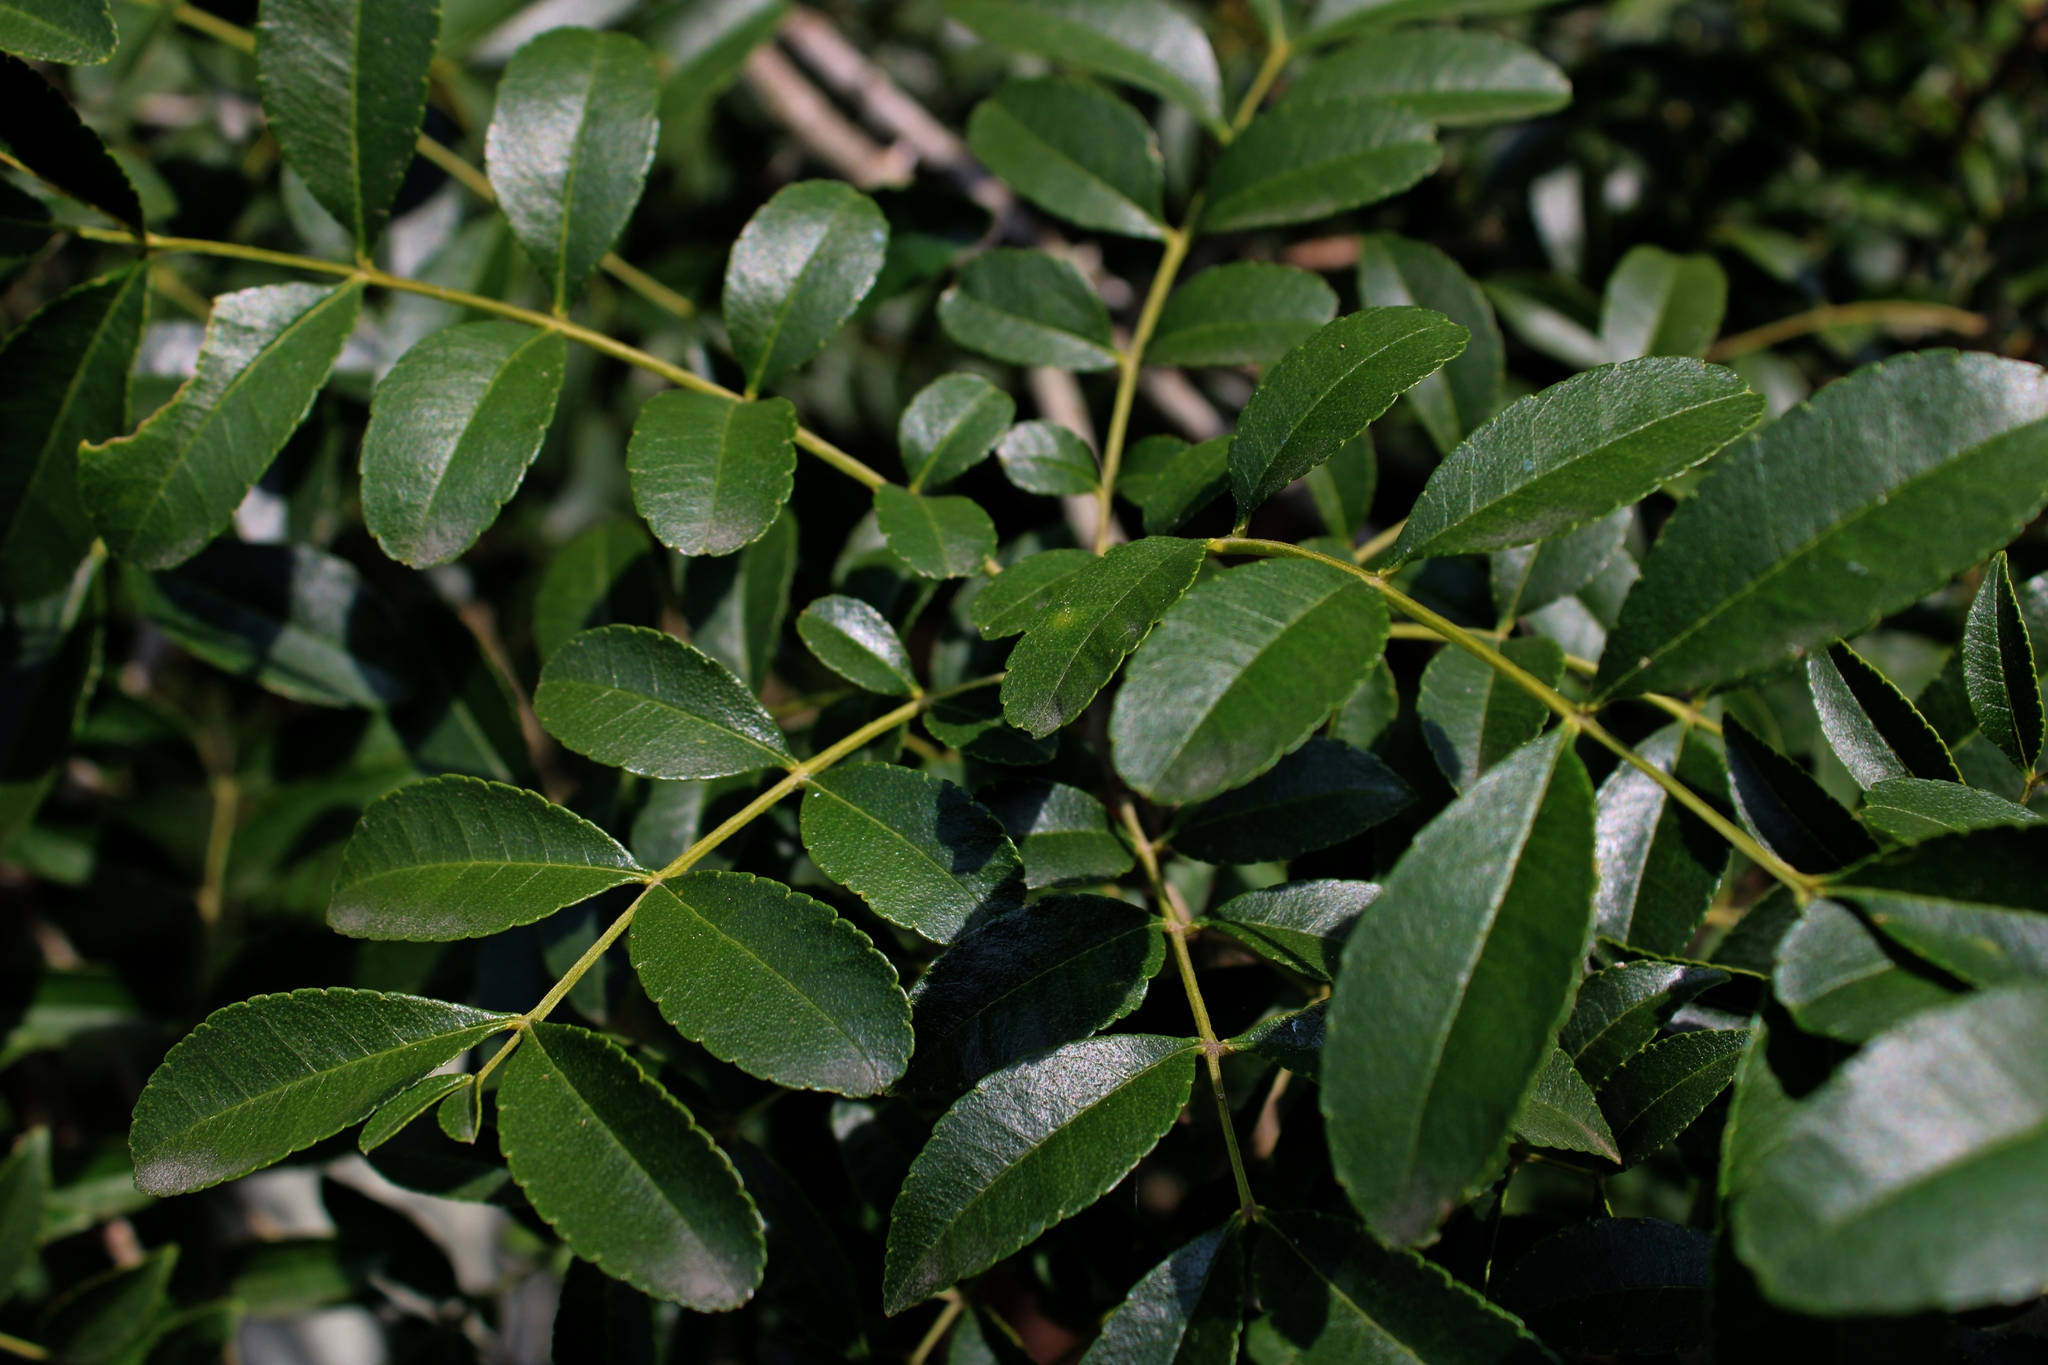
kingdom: Plantae
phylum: Tracheophyta
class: Magnoliopsida
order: Sapindales
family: Rutaceae
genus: Zanthoxylum
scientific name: Zanthoxylum rhoifolium
